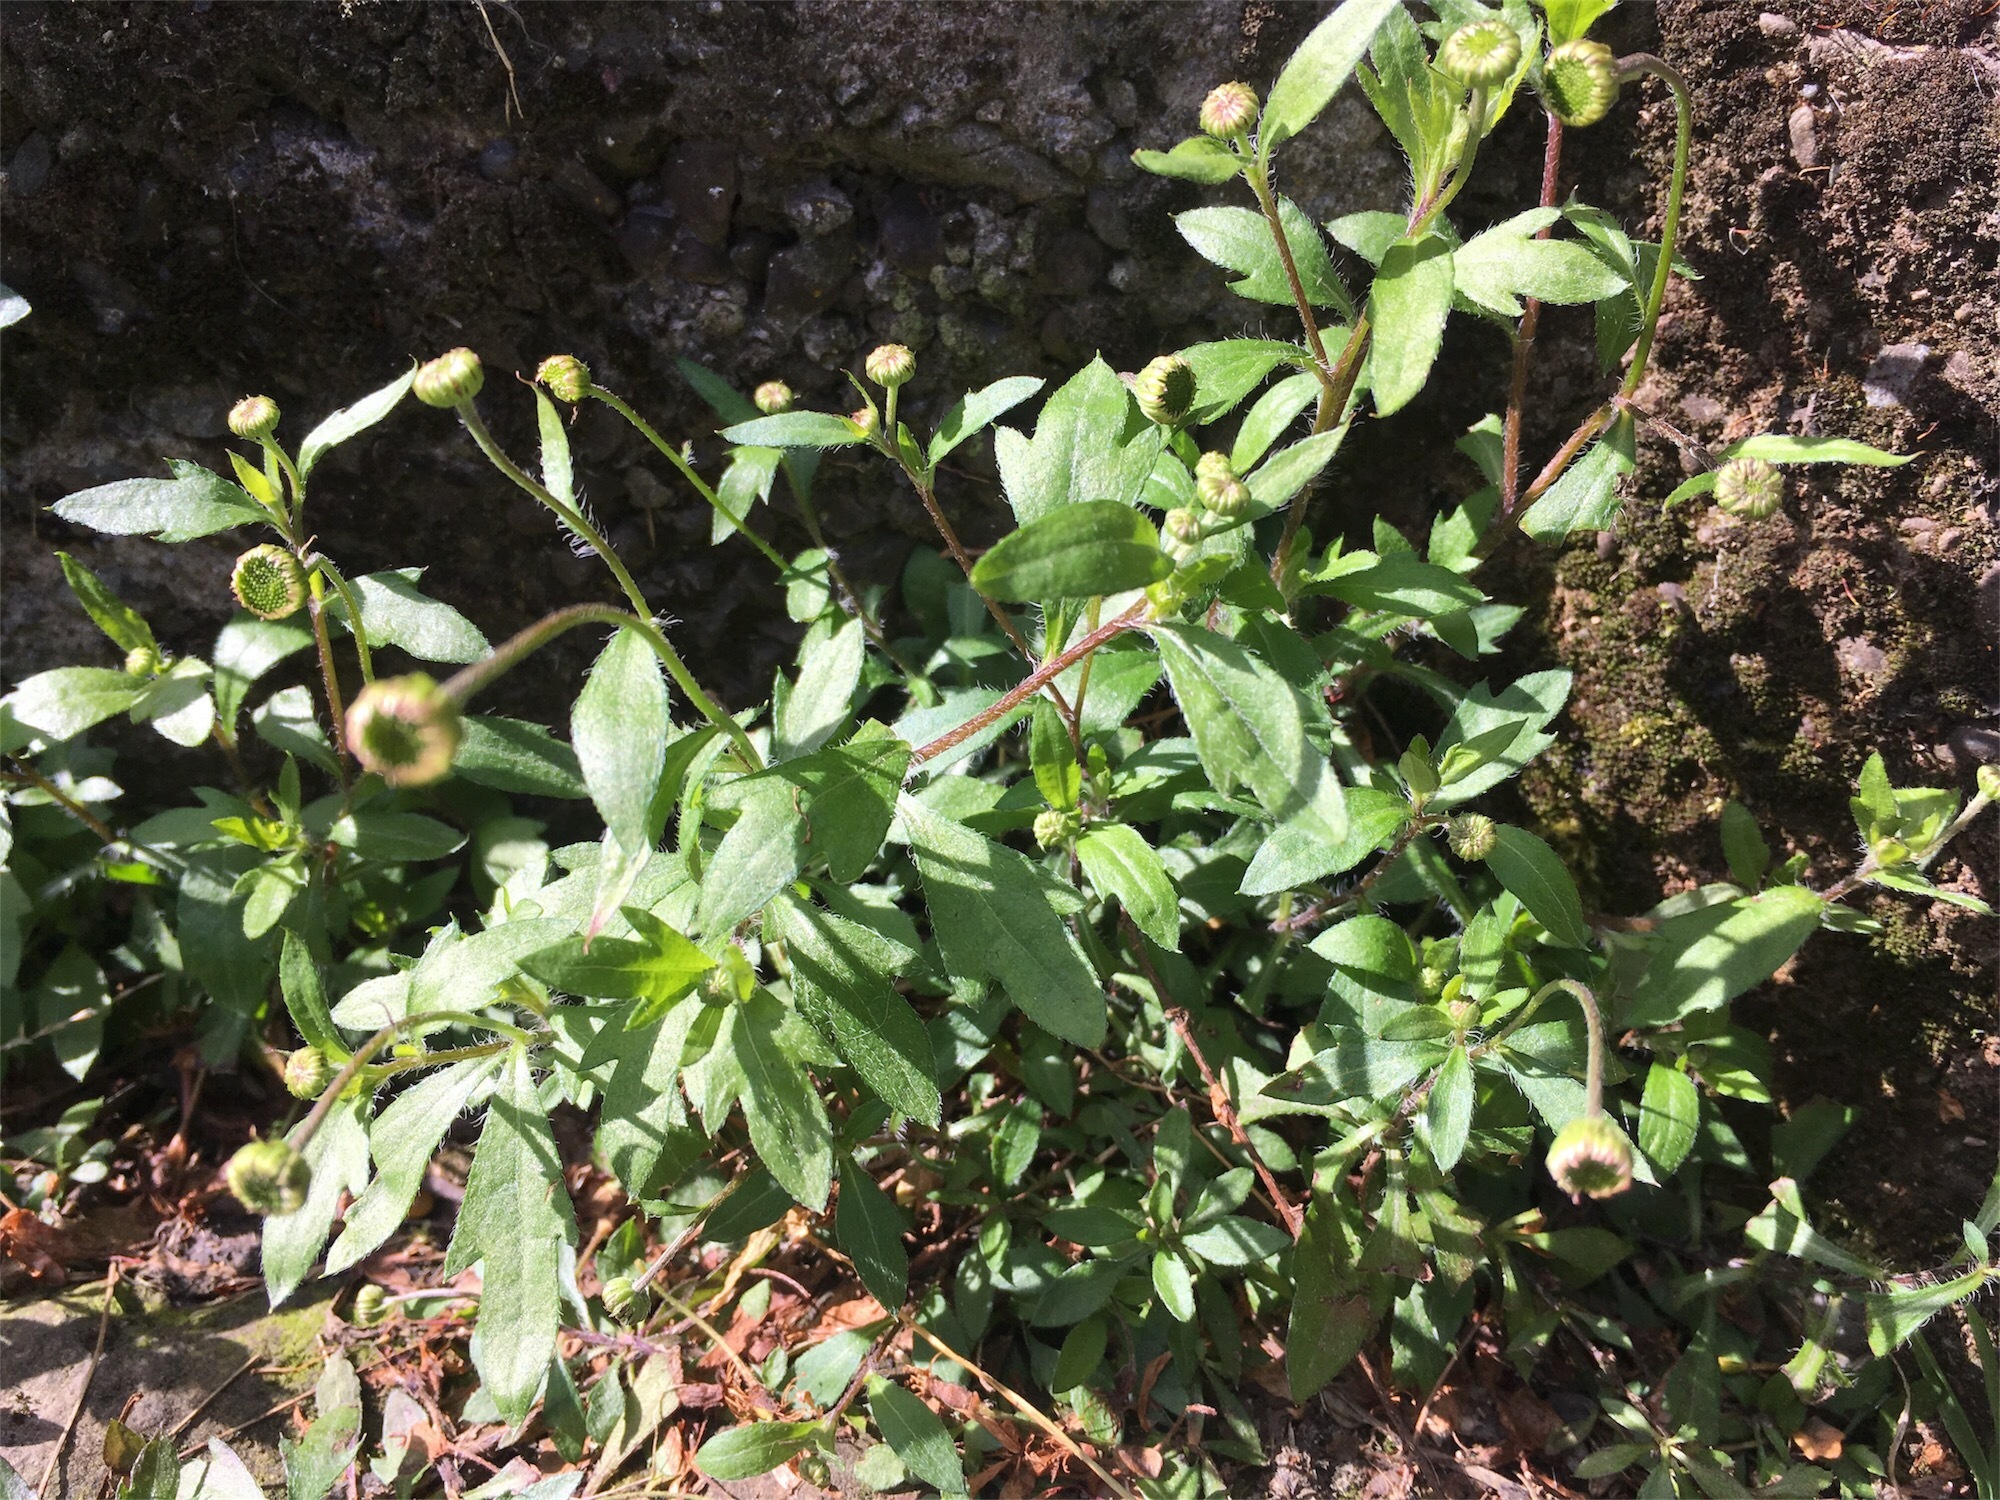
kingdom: Plantae
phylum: Tracheophyta
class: Magnoliopsida
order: Asterales
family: Asteraceae
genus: Erigeron
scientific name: Erigeron karvinskianus
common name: Mexican fleabane
